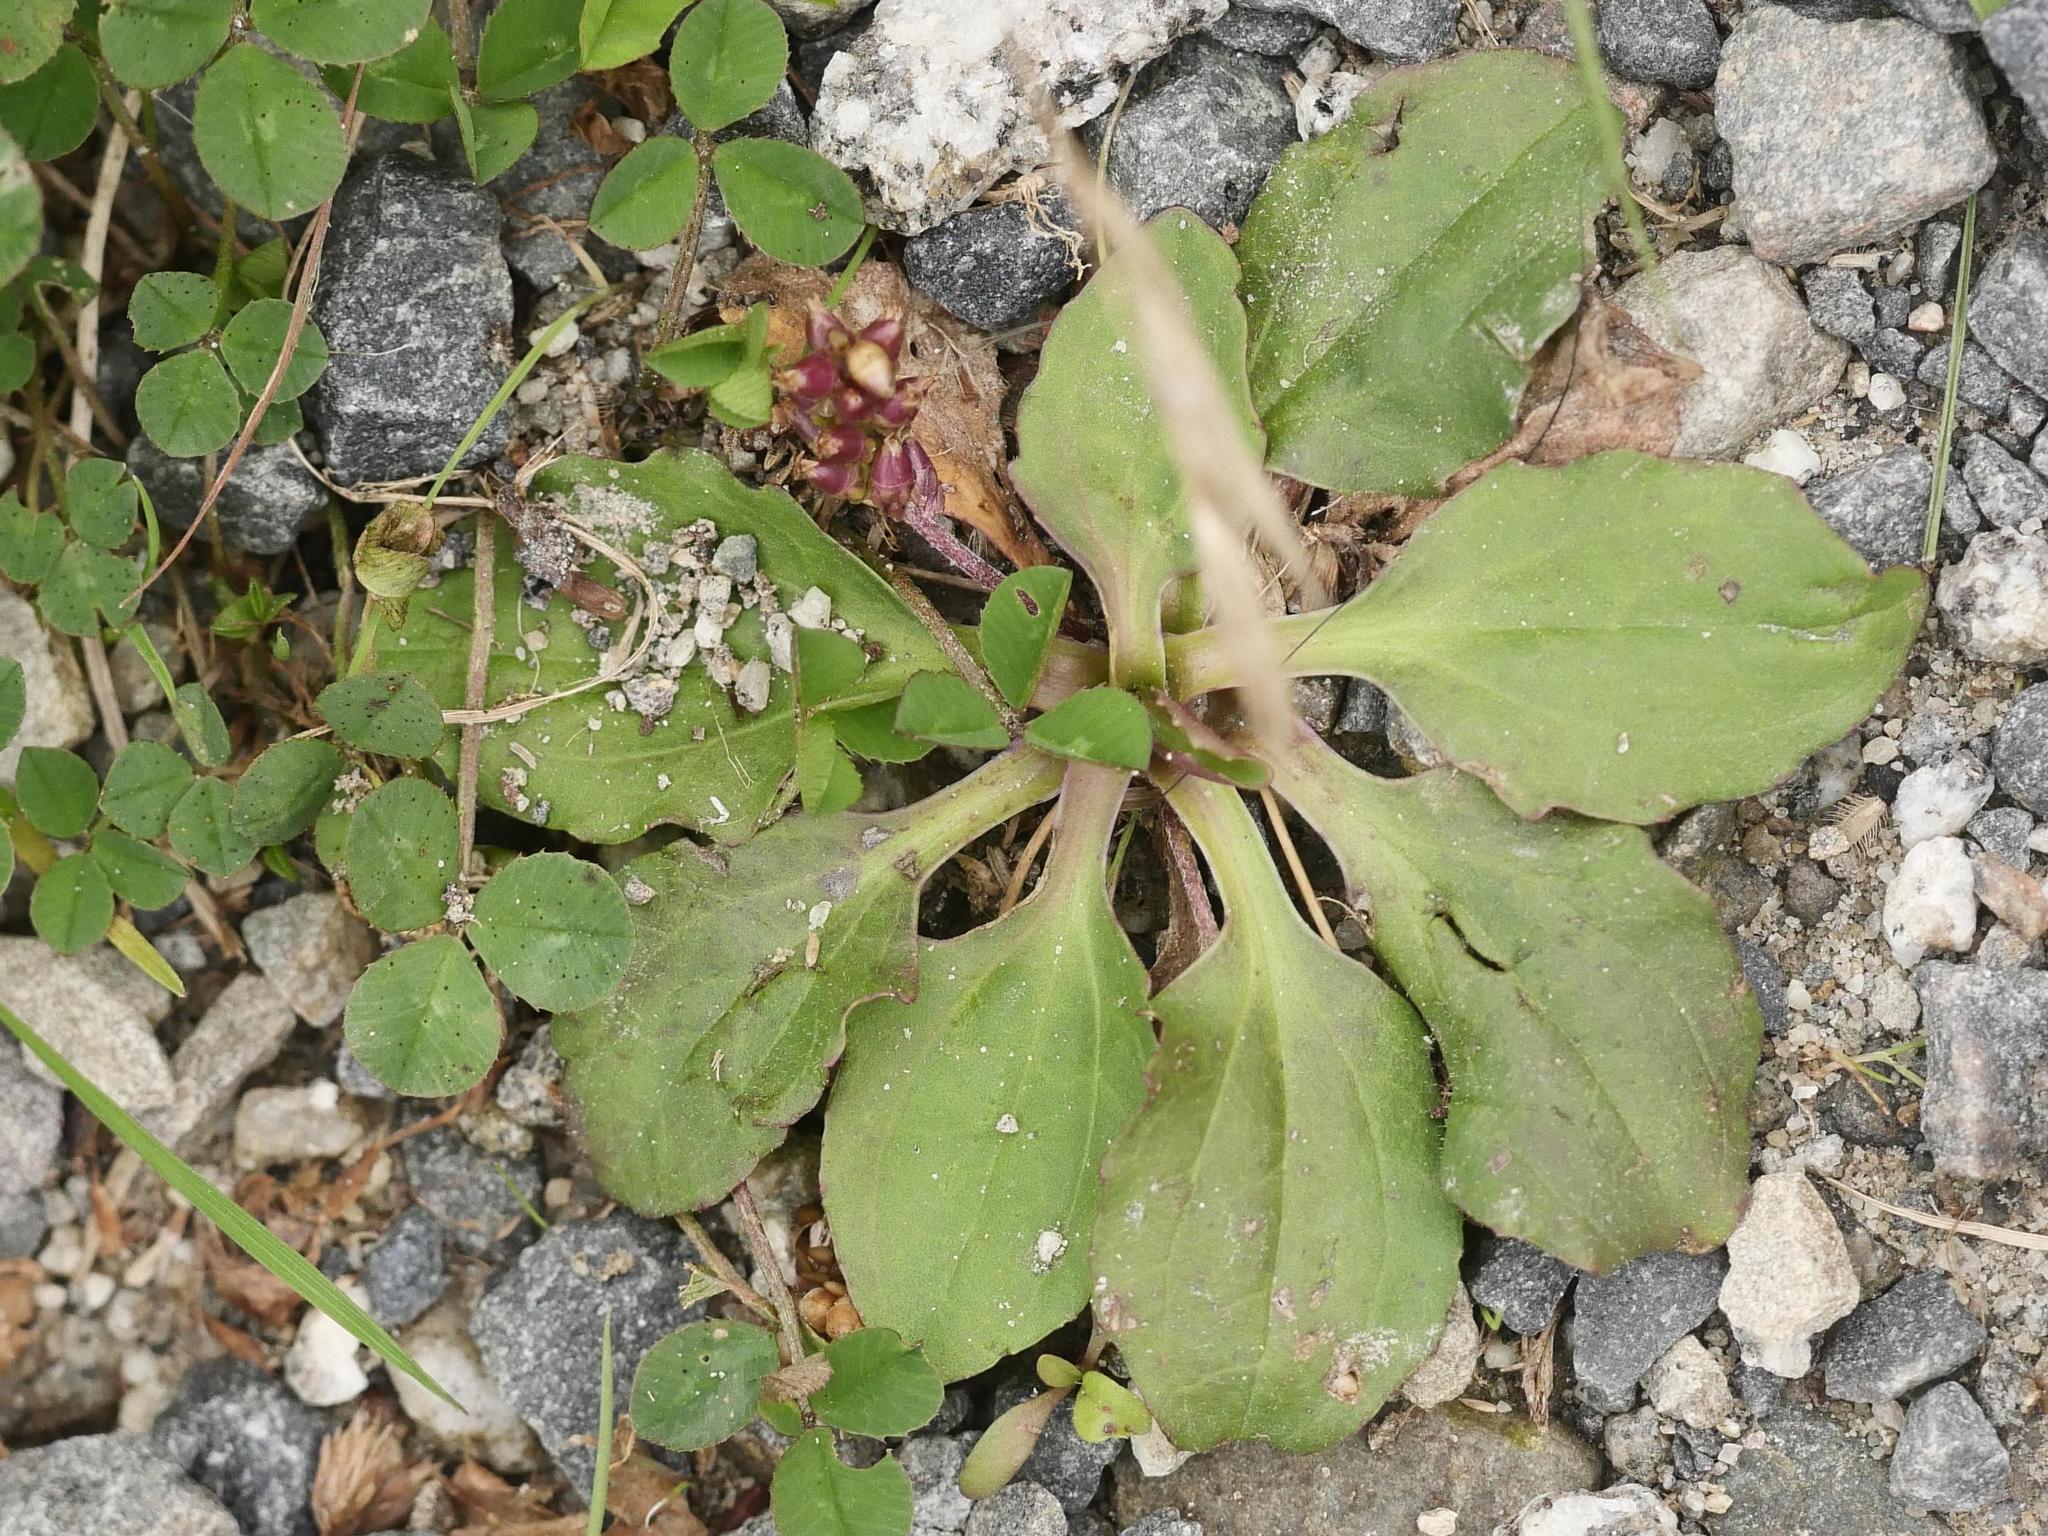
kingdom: Plantae
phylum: Tracheophyta
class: Magnoliopsida
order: Lamiales
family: Plantaginaceae
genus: Plantago
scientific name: Plantago major
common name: Common plantain
